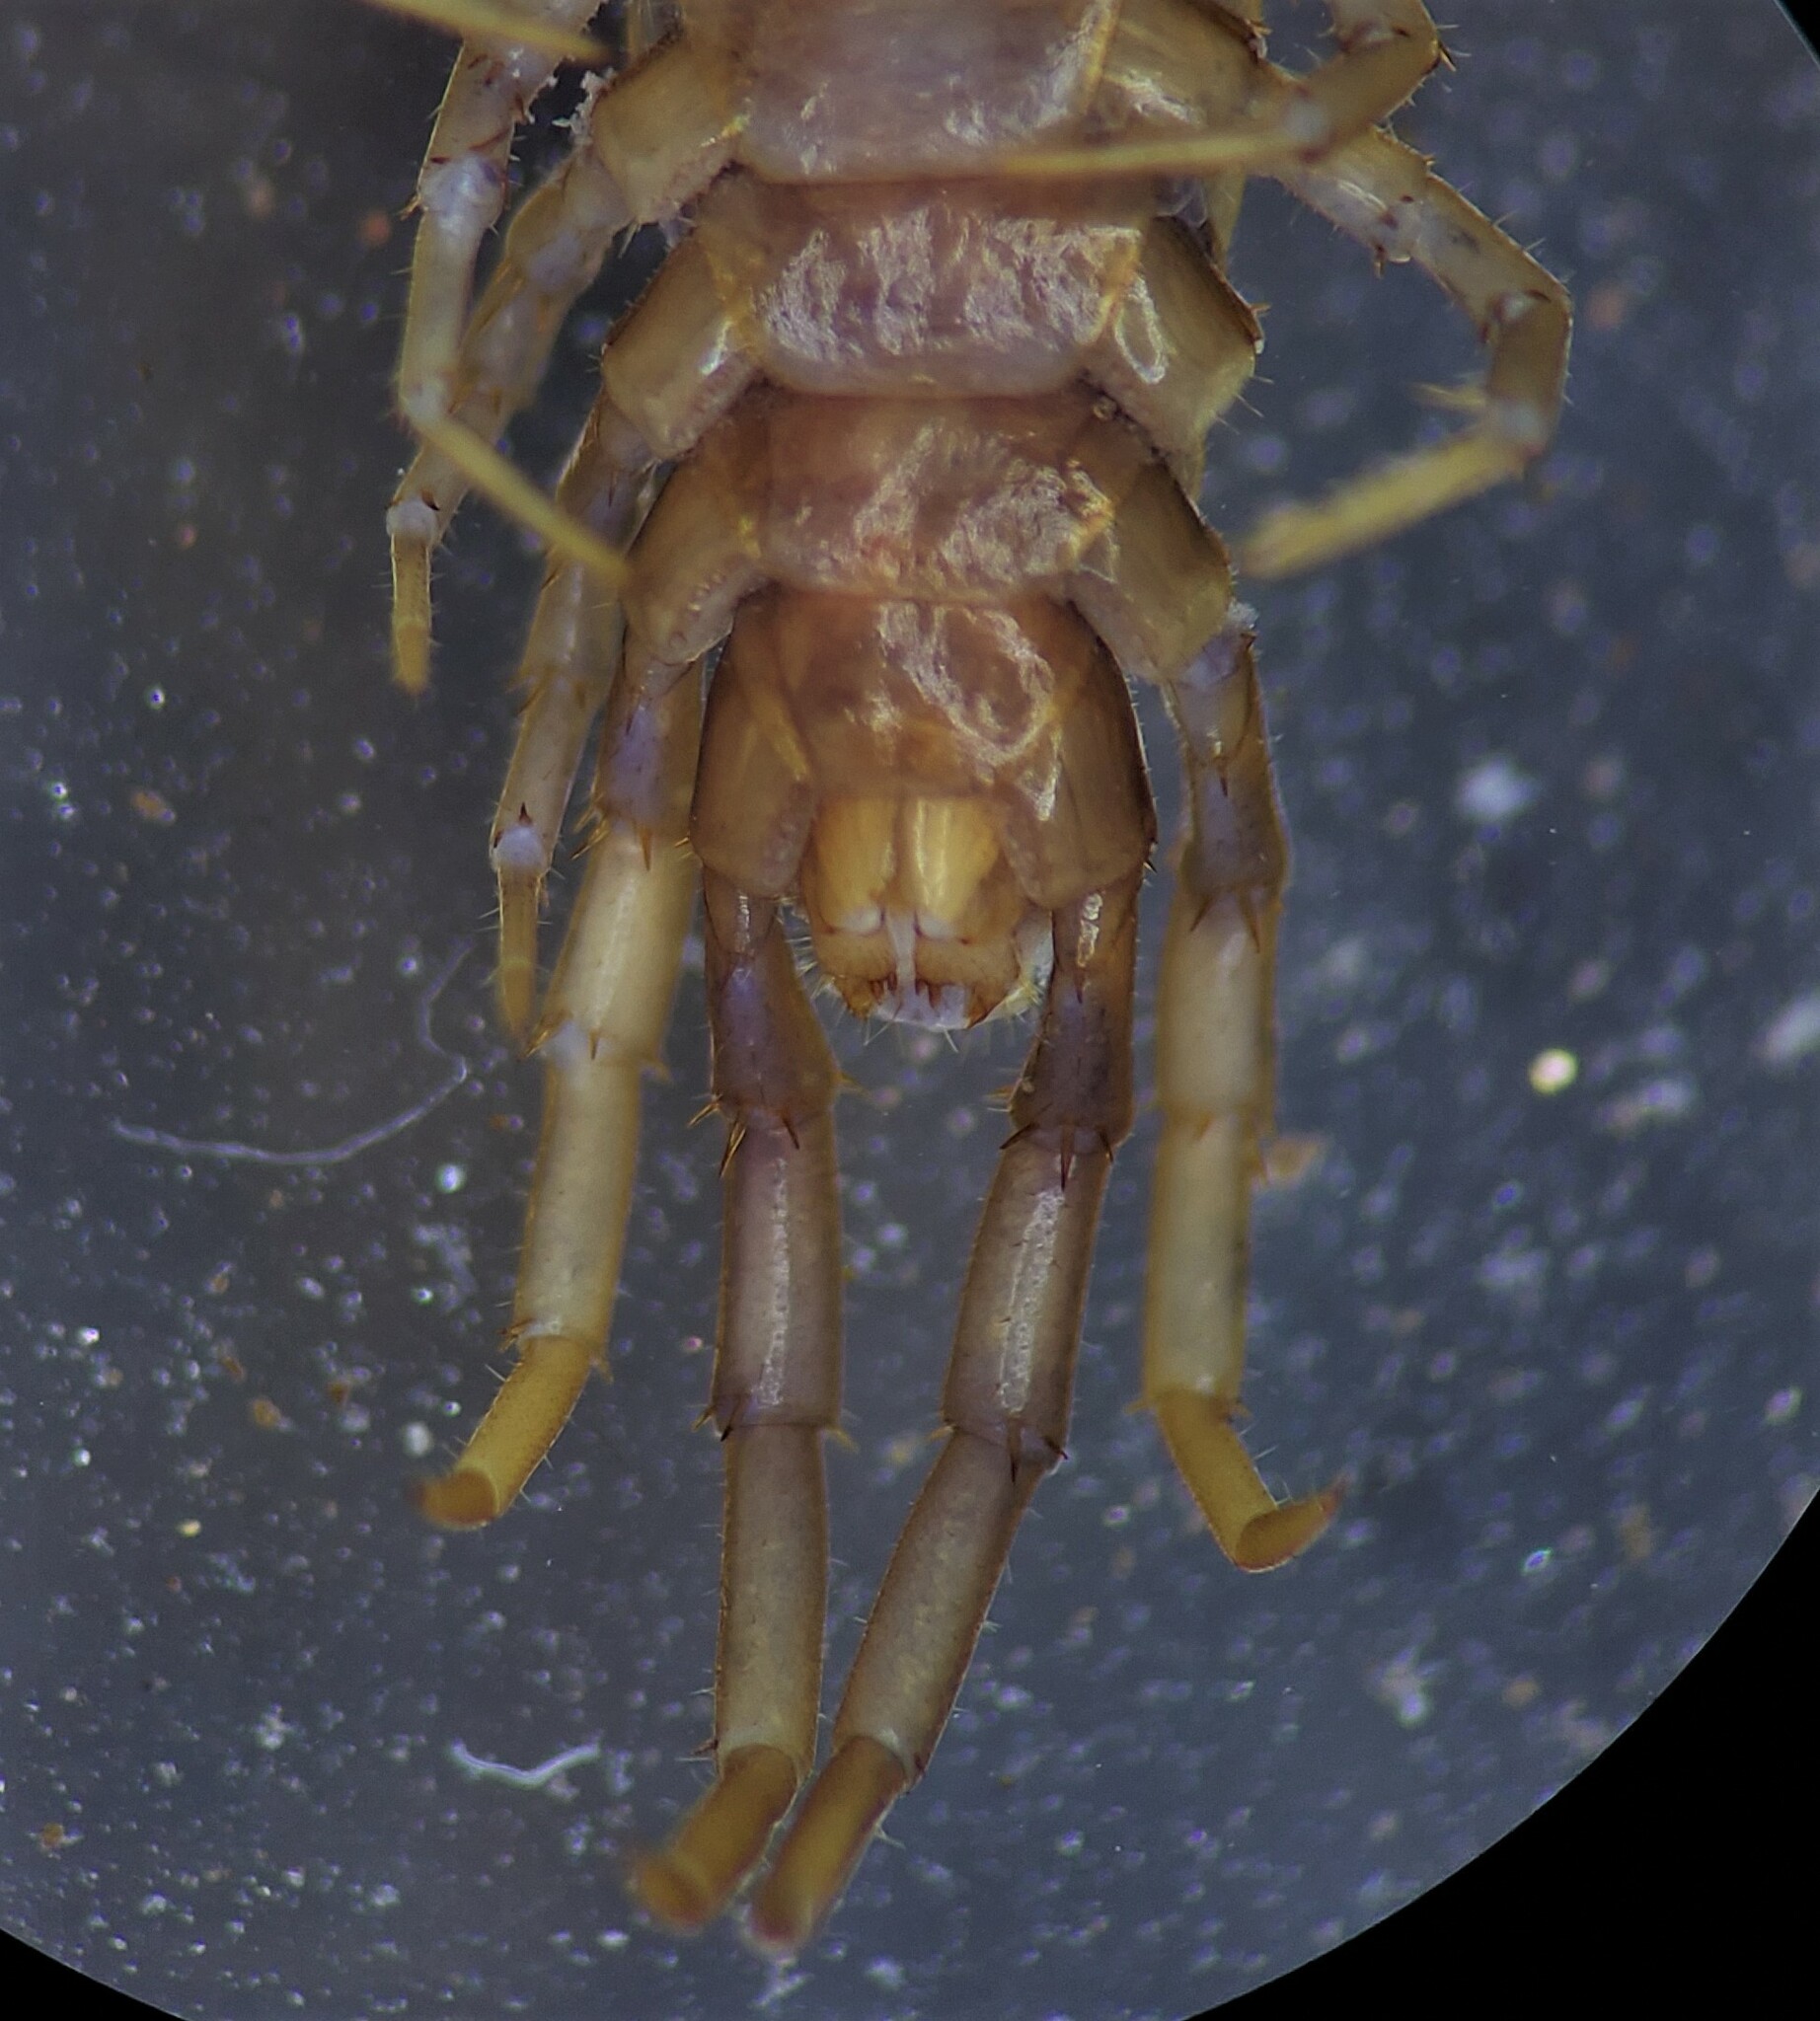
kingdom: Animalia
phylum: Arthropoda
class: Chilopoda
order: Lithobiomorpha
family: Lithobiidae
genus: Nadabius
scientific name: Nadabius coloradensis
